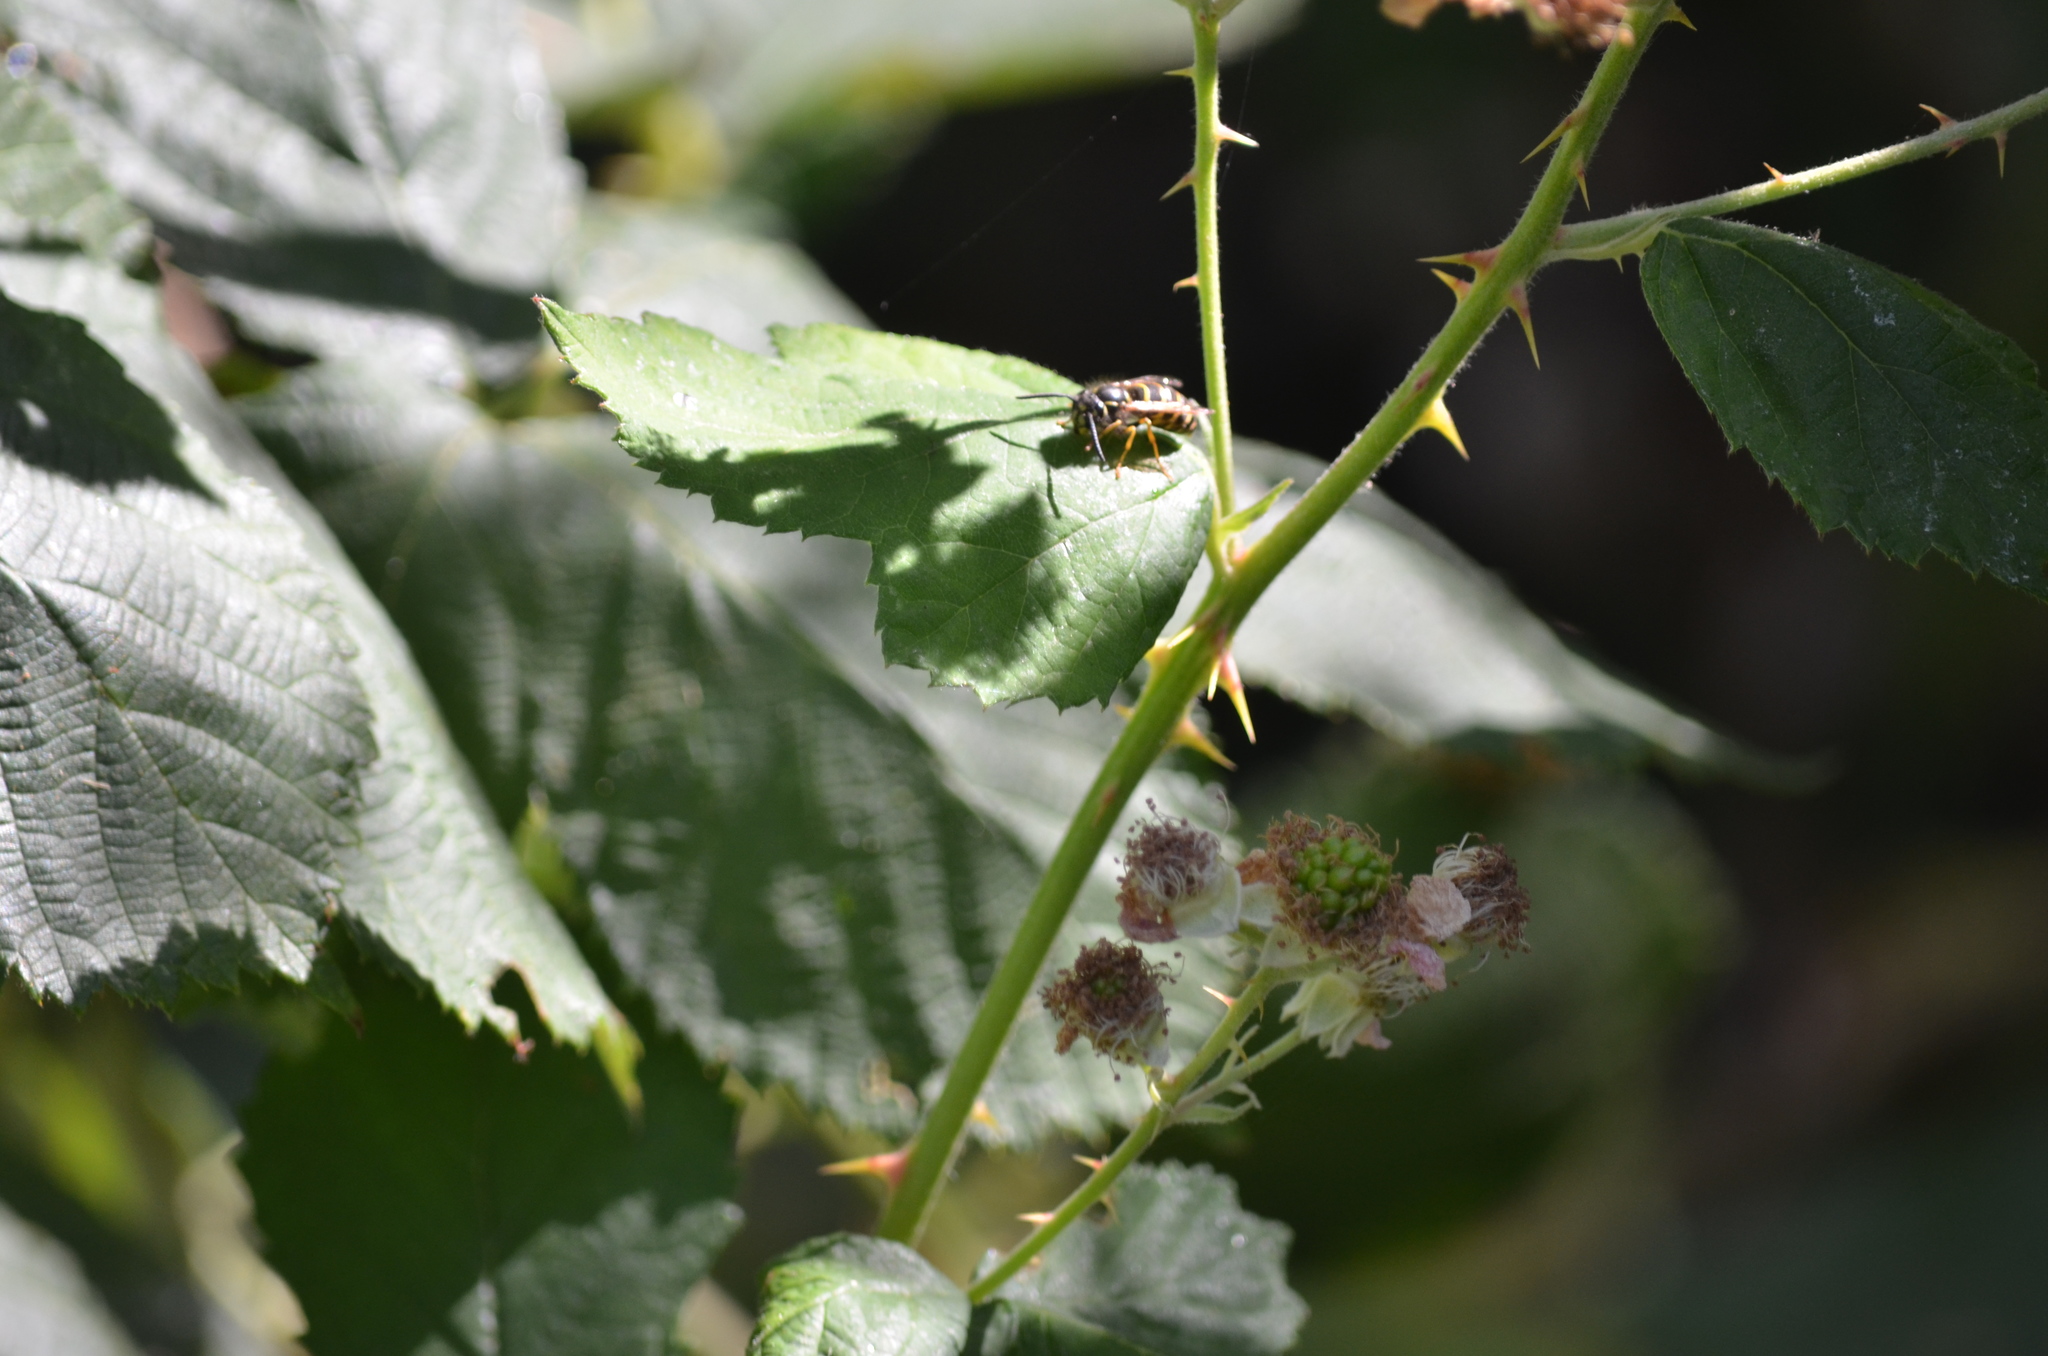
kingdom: Animalia
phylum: Arthropoda
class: Insecta
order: Hymenoptera
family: Vespidae
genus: Vespula
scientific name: Vespula alascensis
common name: Alaska yellowjacket
